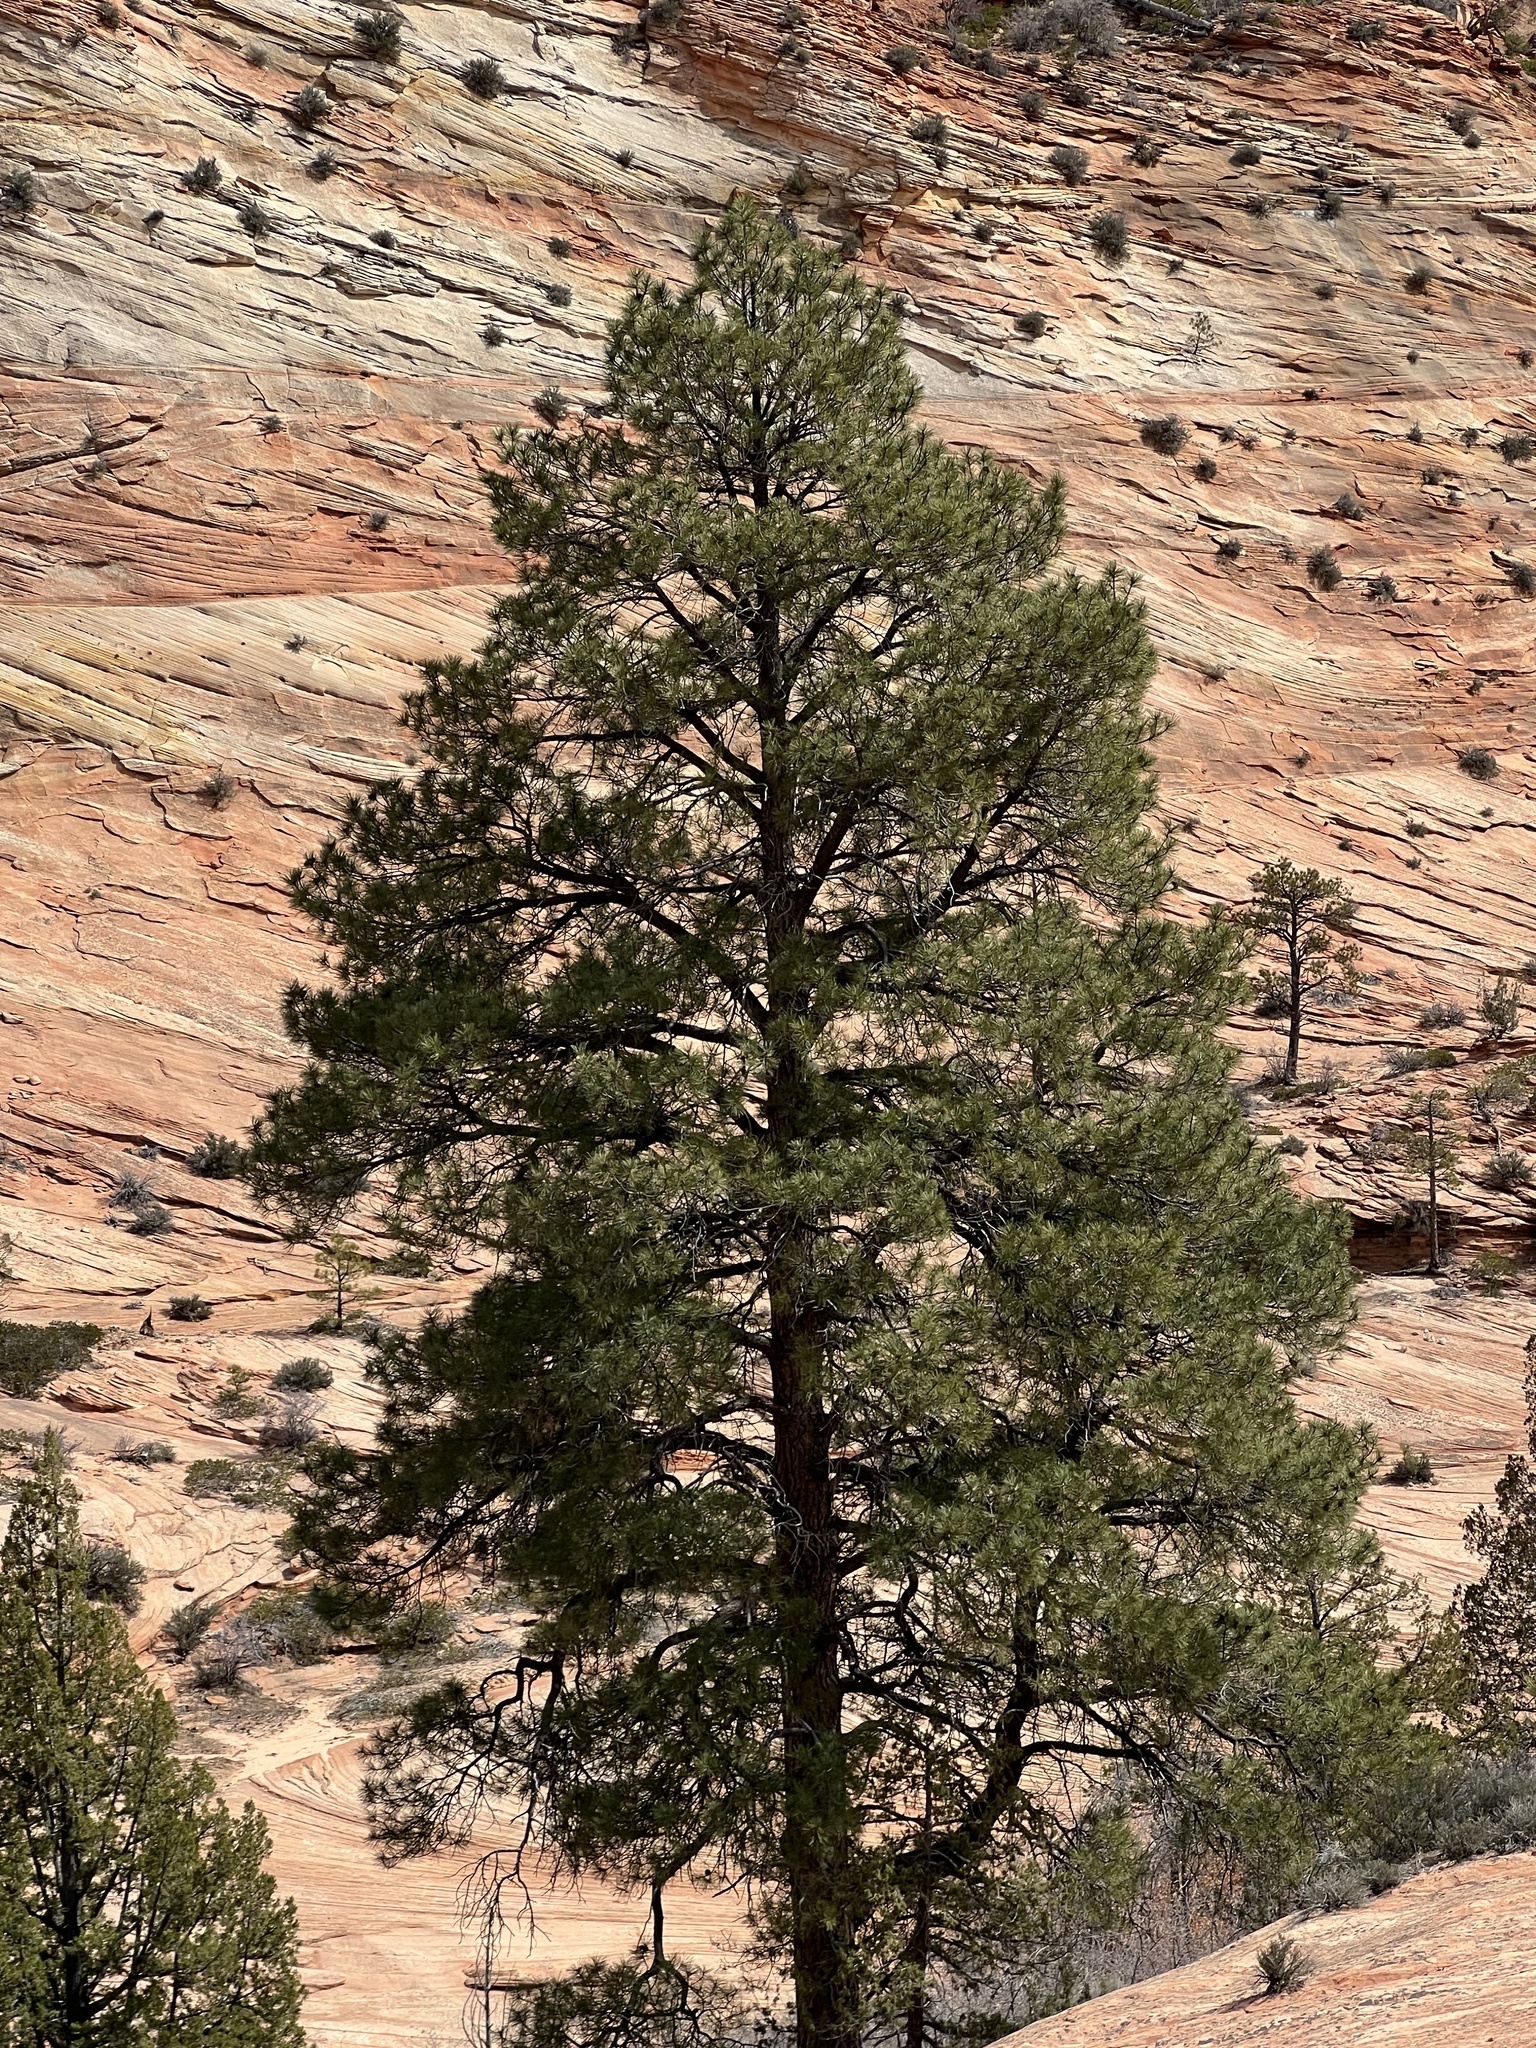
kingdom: Plantae
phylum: Tracheophyta
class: Pinopsida
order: Pinales
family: Pinaceae
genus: Pinus
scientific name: Pinus ponderosa
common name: Western yellow-pine
